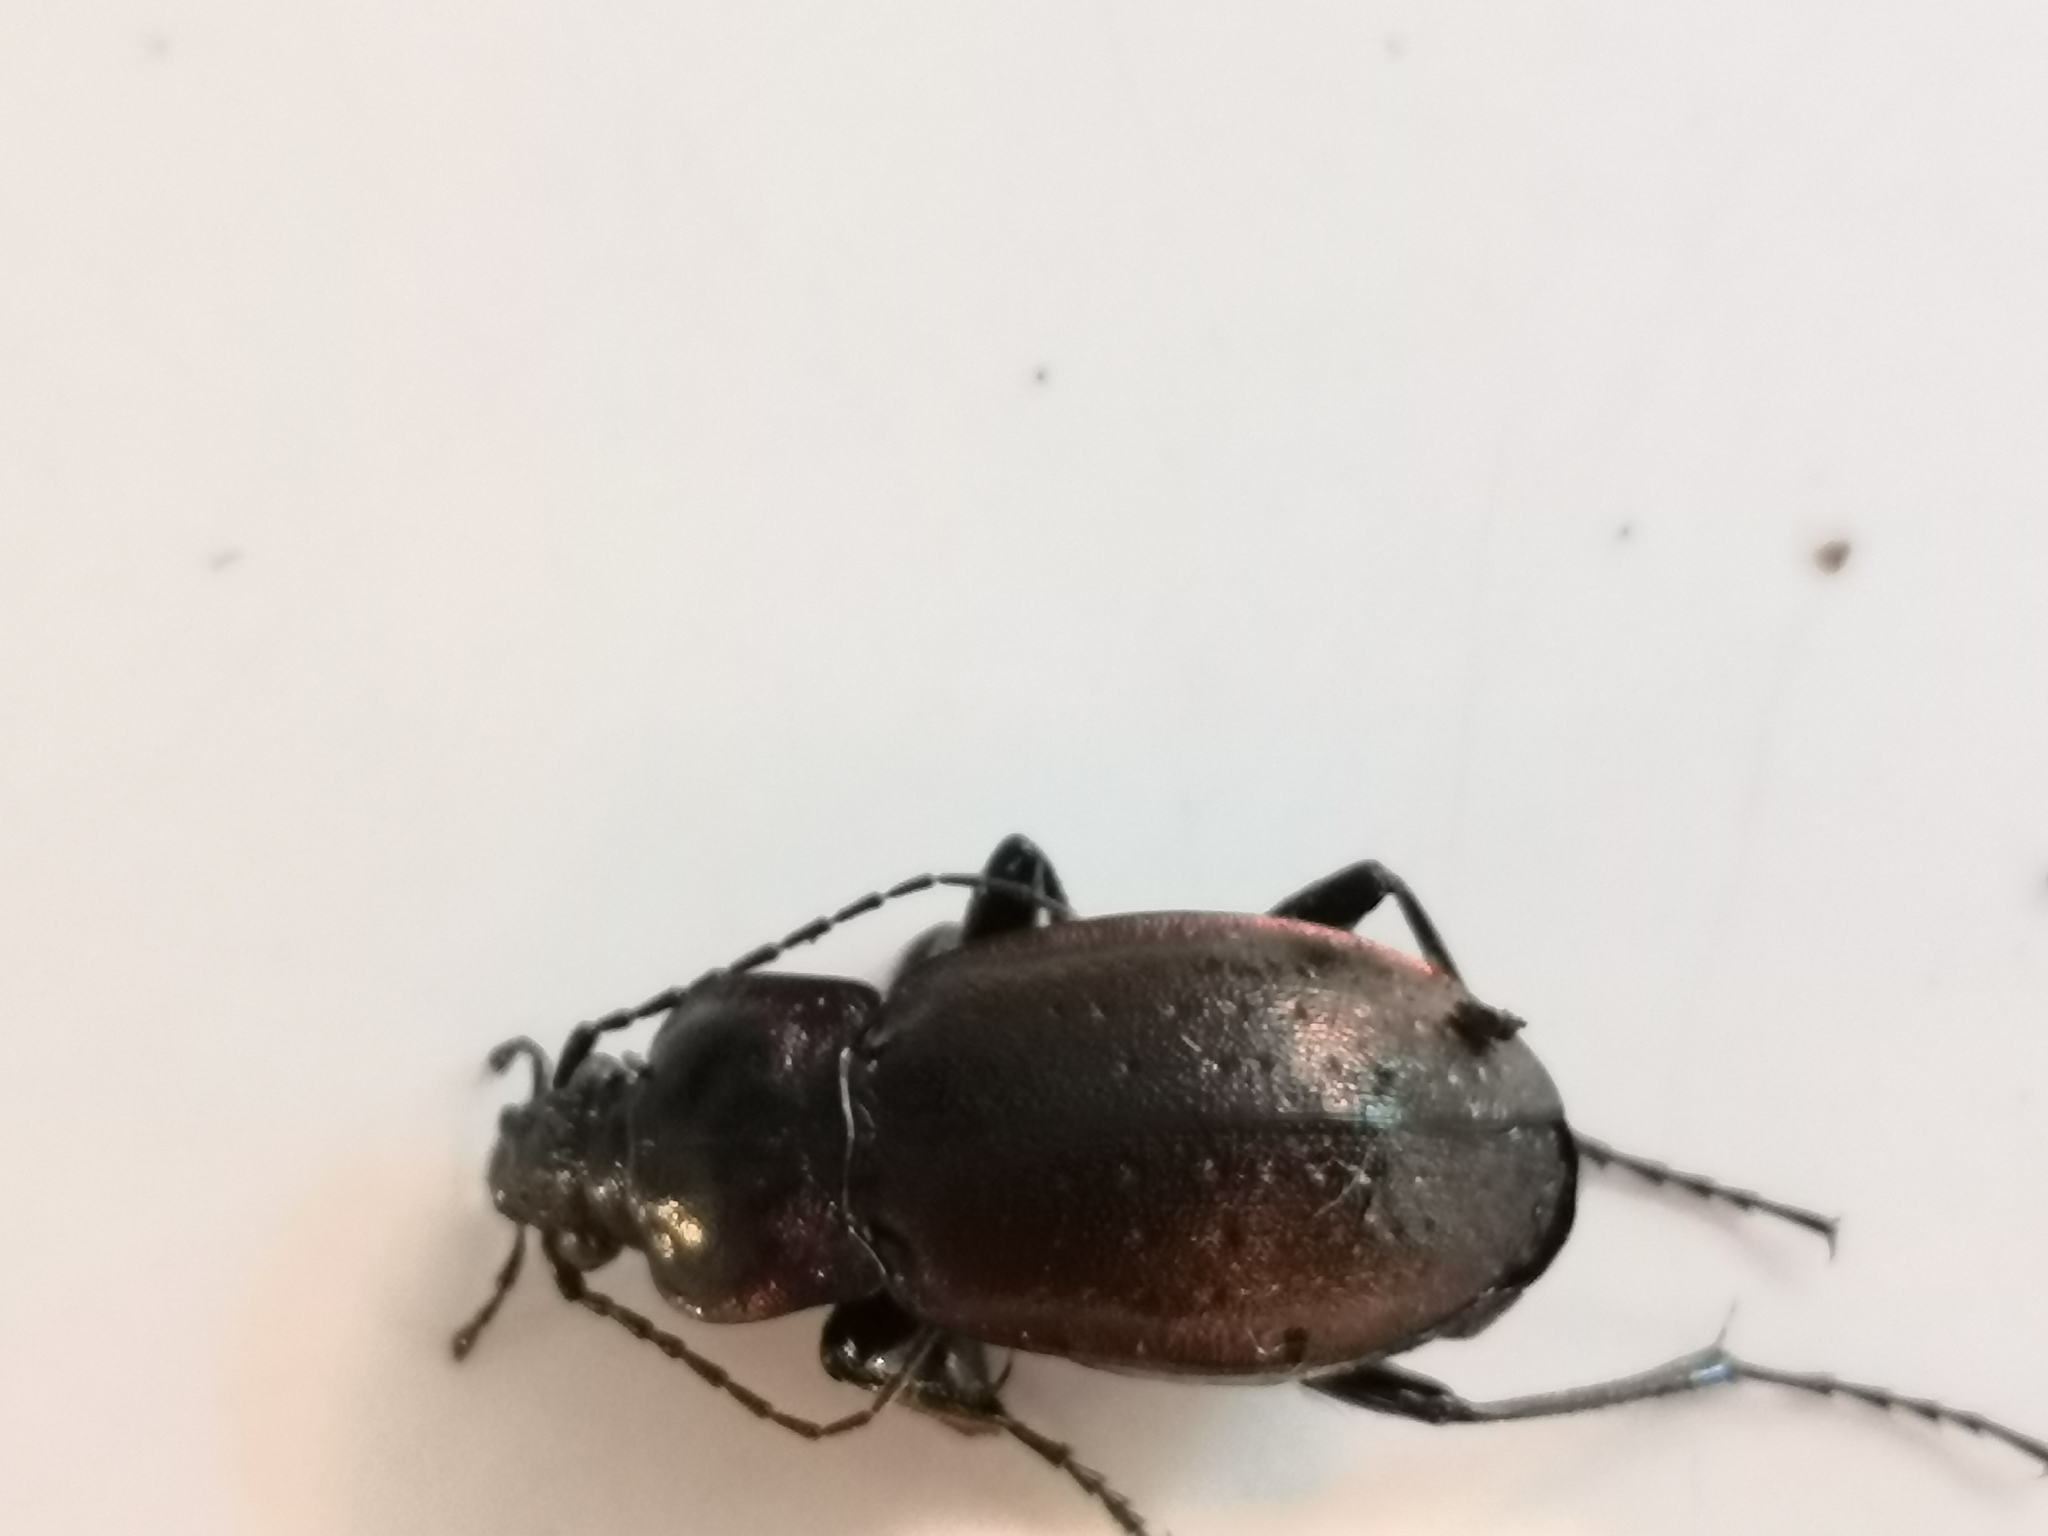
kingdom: Animalia
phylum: Arthropoda
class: Insecta
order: Coleoptera
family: Carabidae
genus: Carabus
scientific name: Carabus nemoralis
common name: European ground beetle
